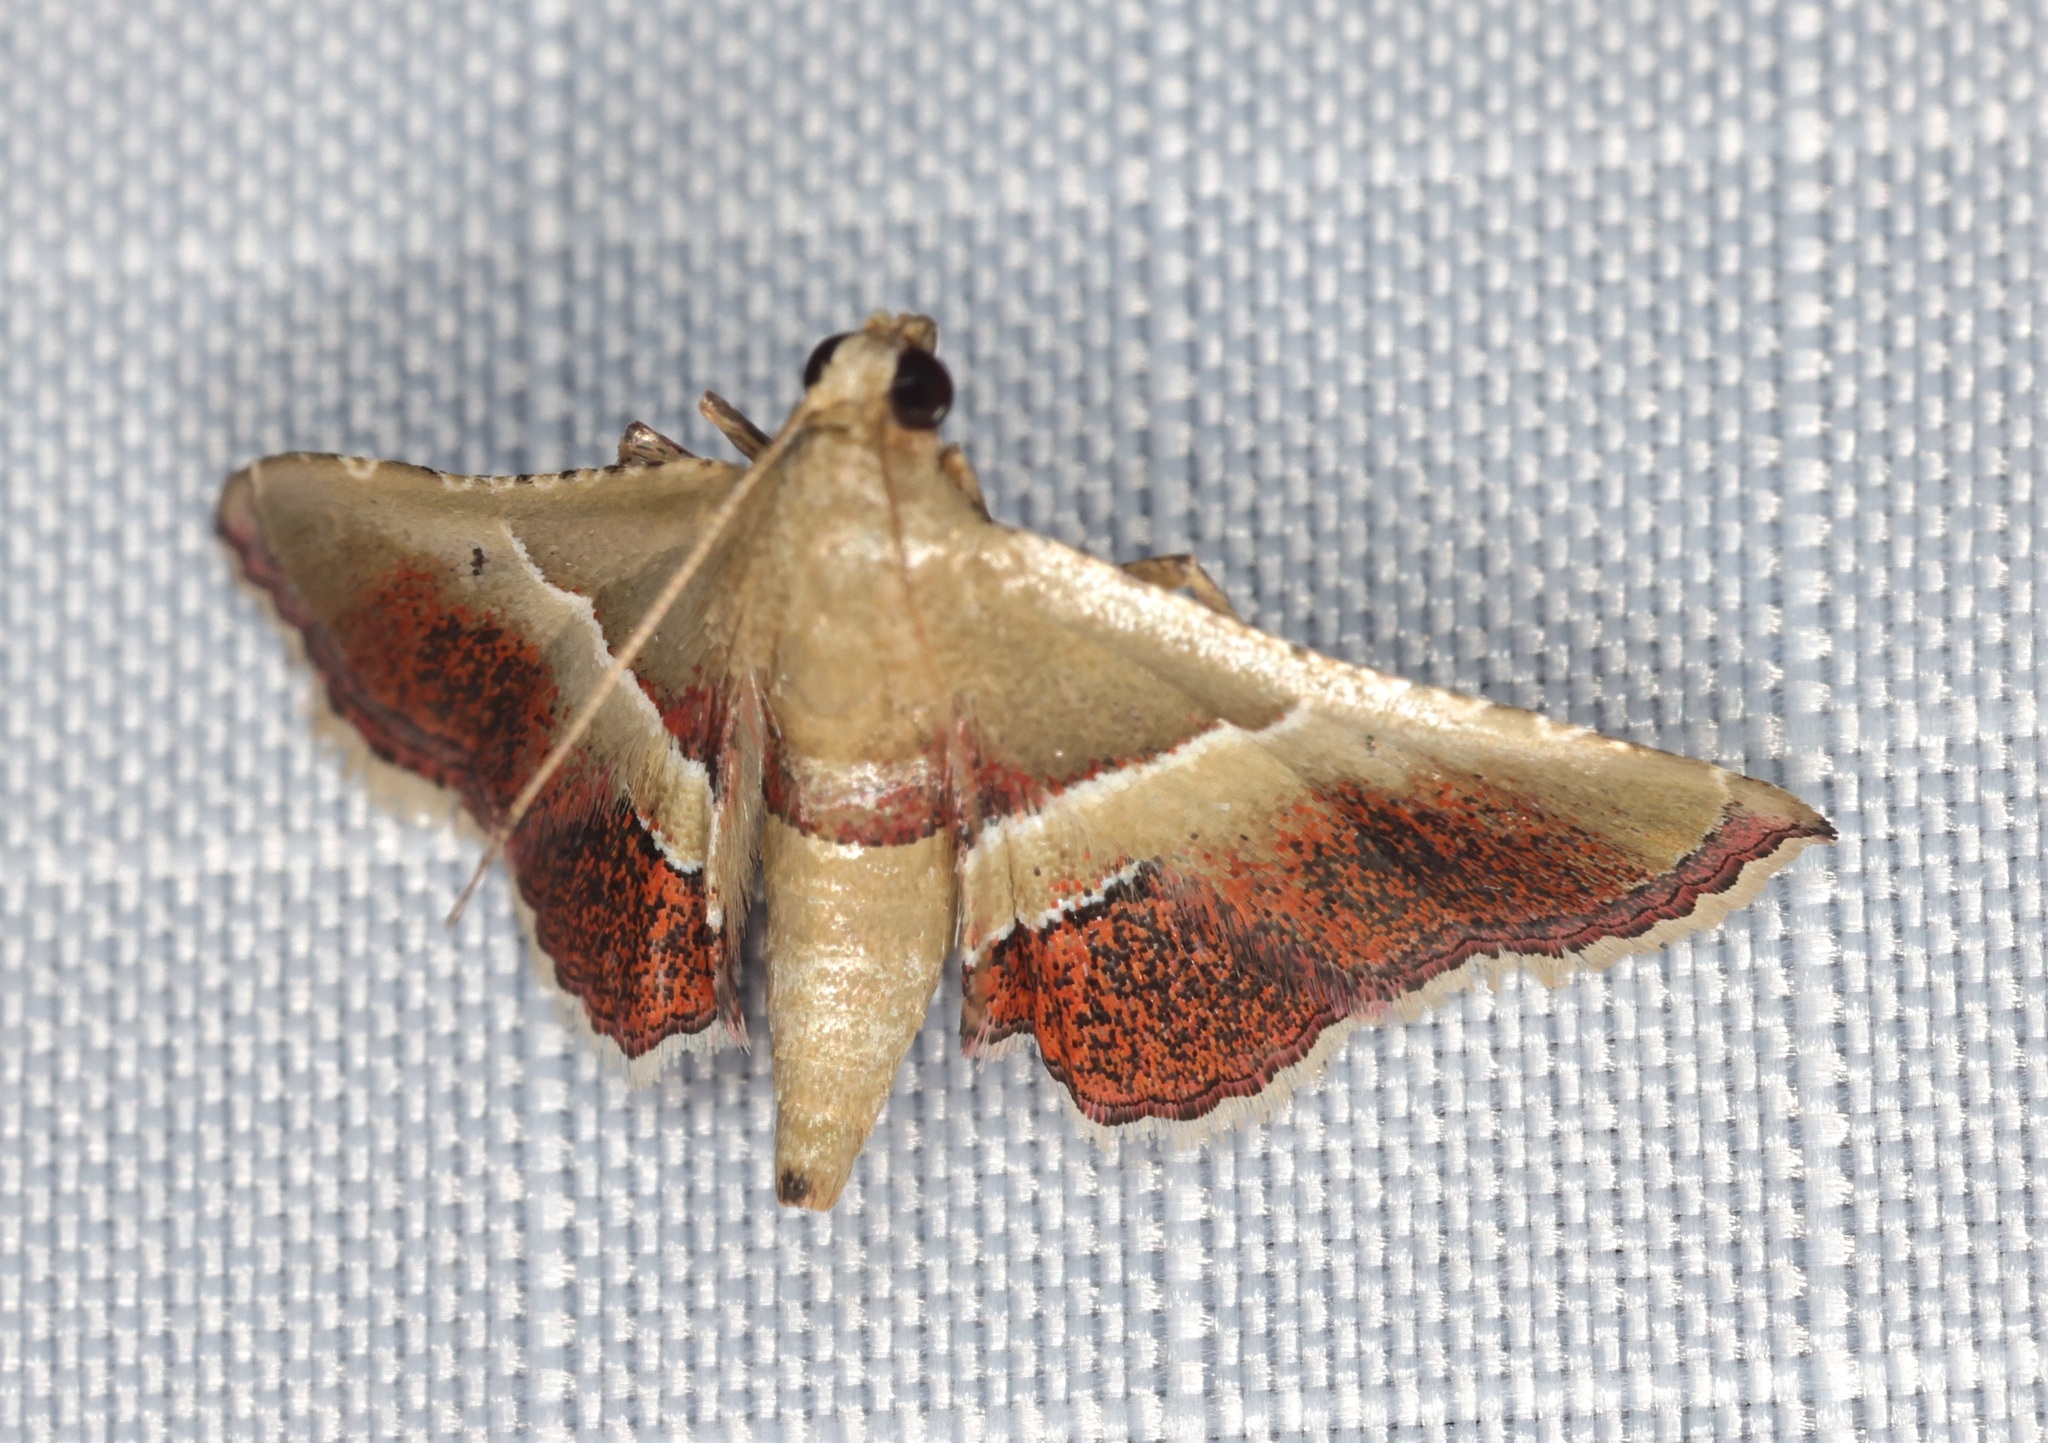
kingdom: Animalia
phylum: Arthropoda
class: Insecta
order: Lepidoptera
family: Pyralidae
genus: Endotricha
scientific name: Endotricha repandalis
